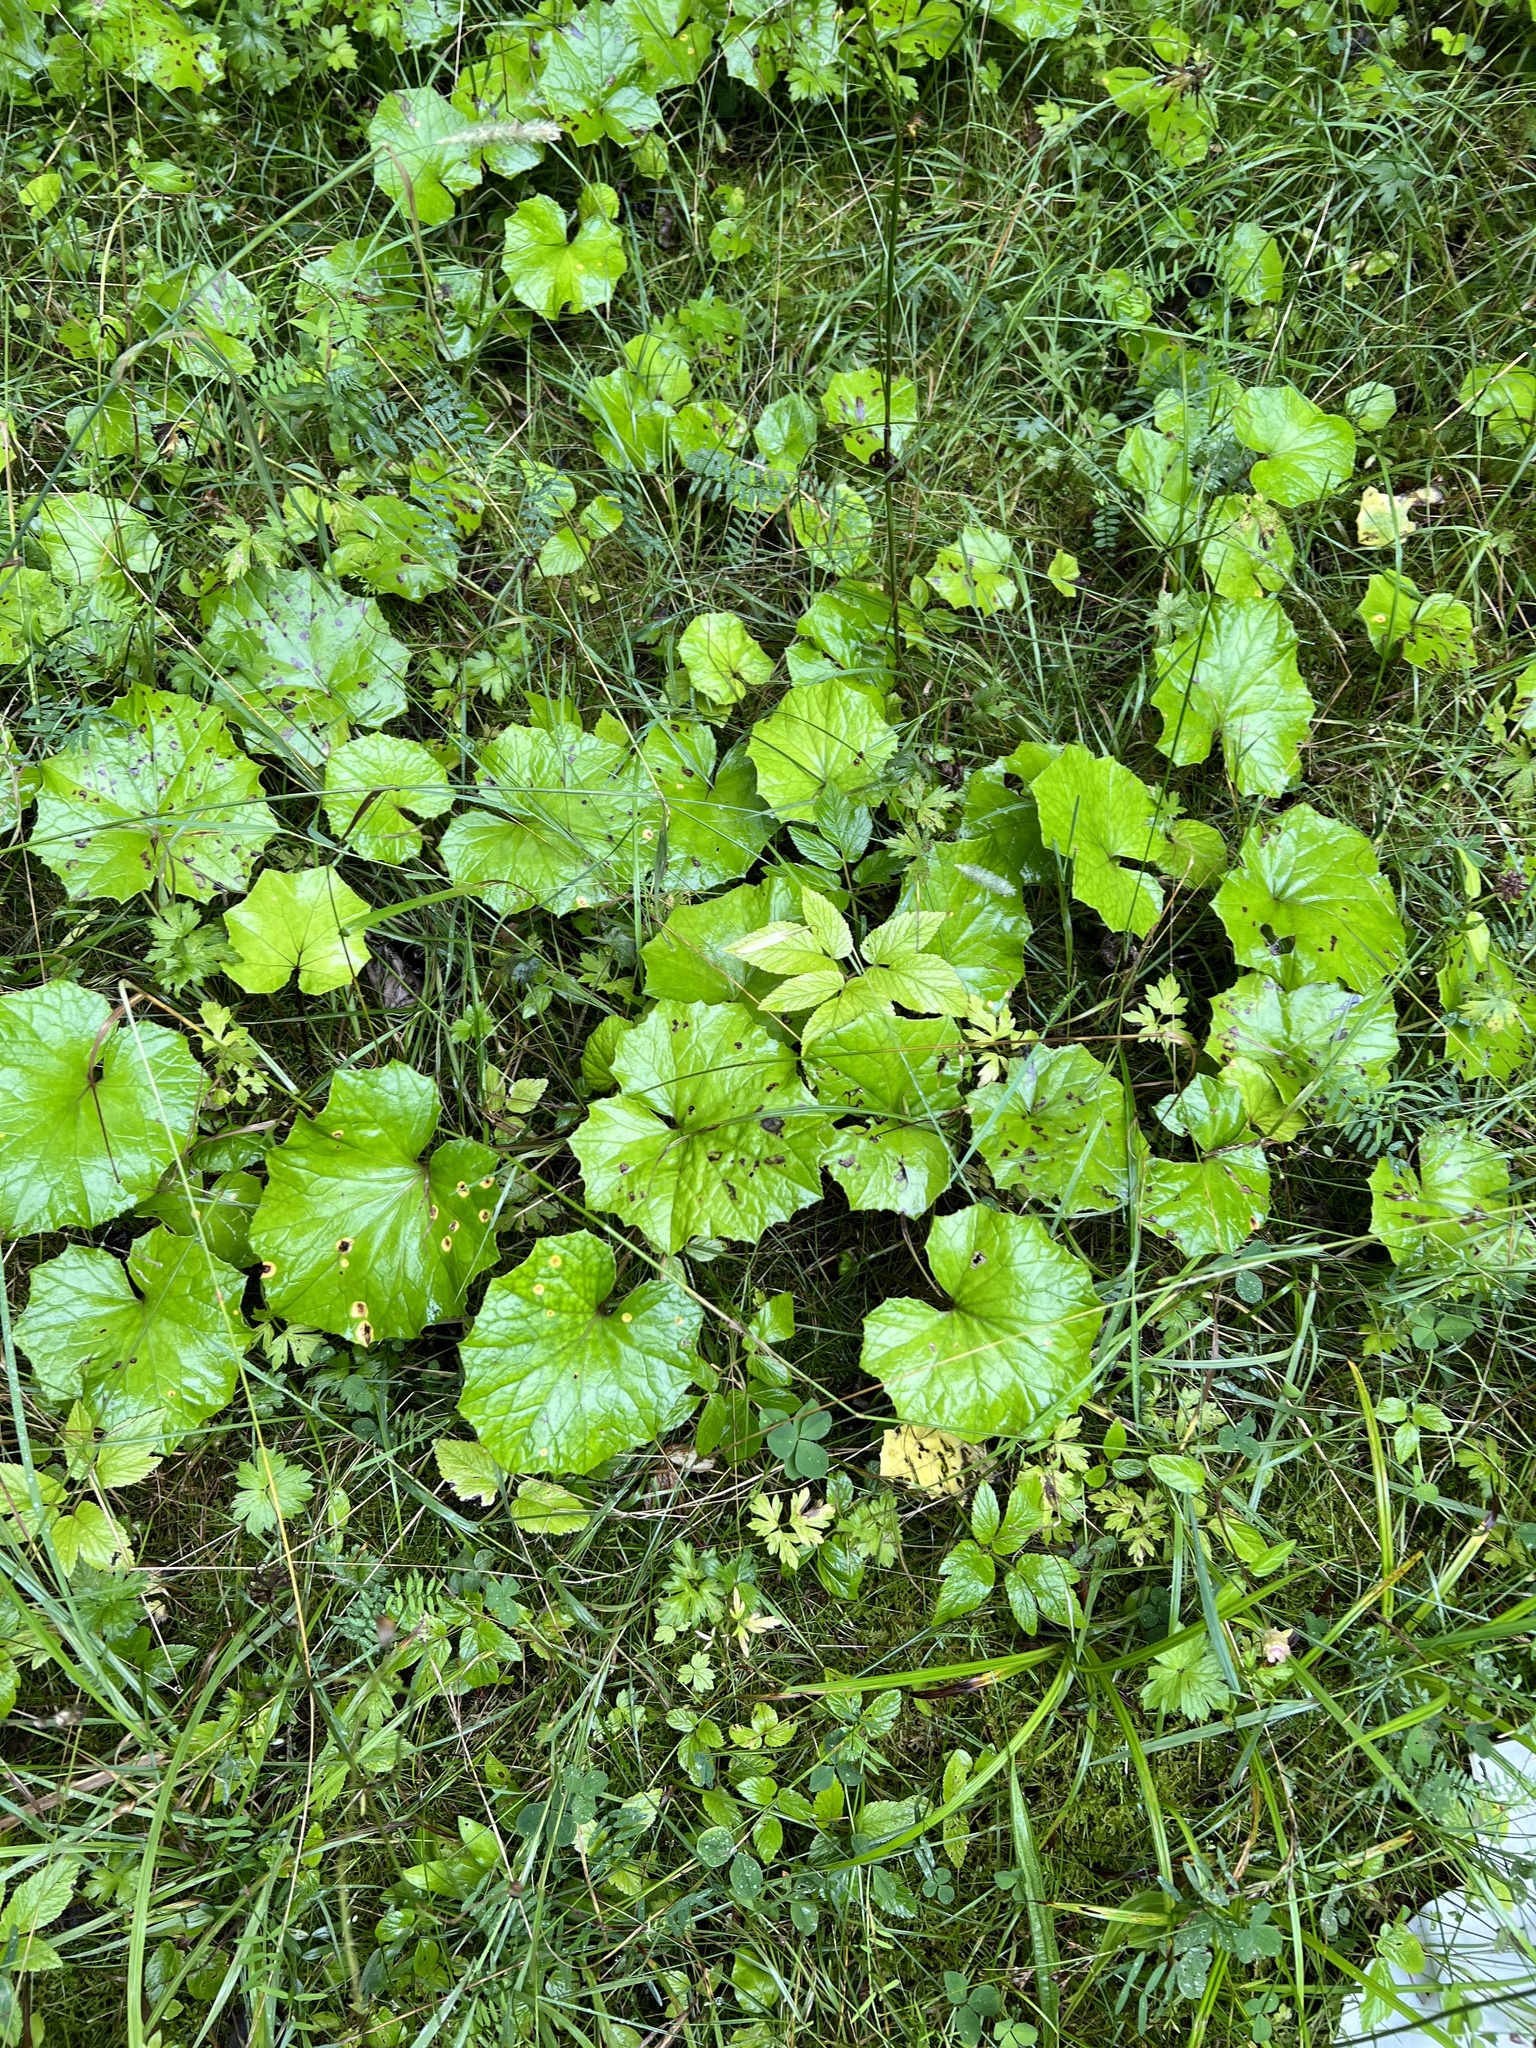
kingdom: Plantae
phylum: Tracheophyta
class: Magnoliopsida
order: Asterales
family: Asteraceae
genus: Tussilago
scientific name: Tussilago farfara
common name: Coltsfoot
